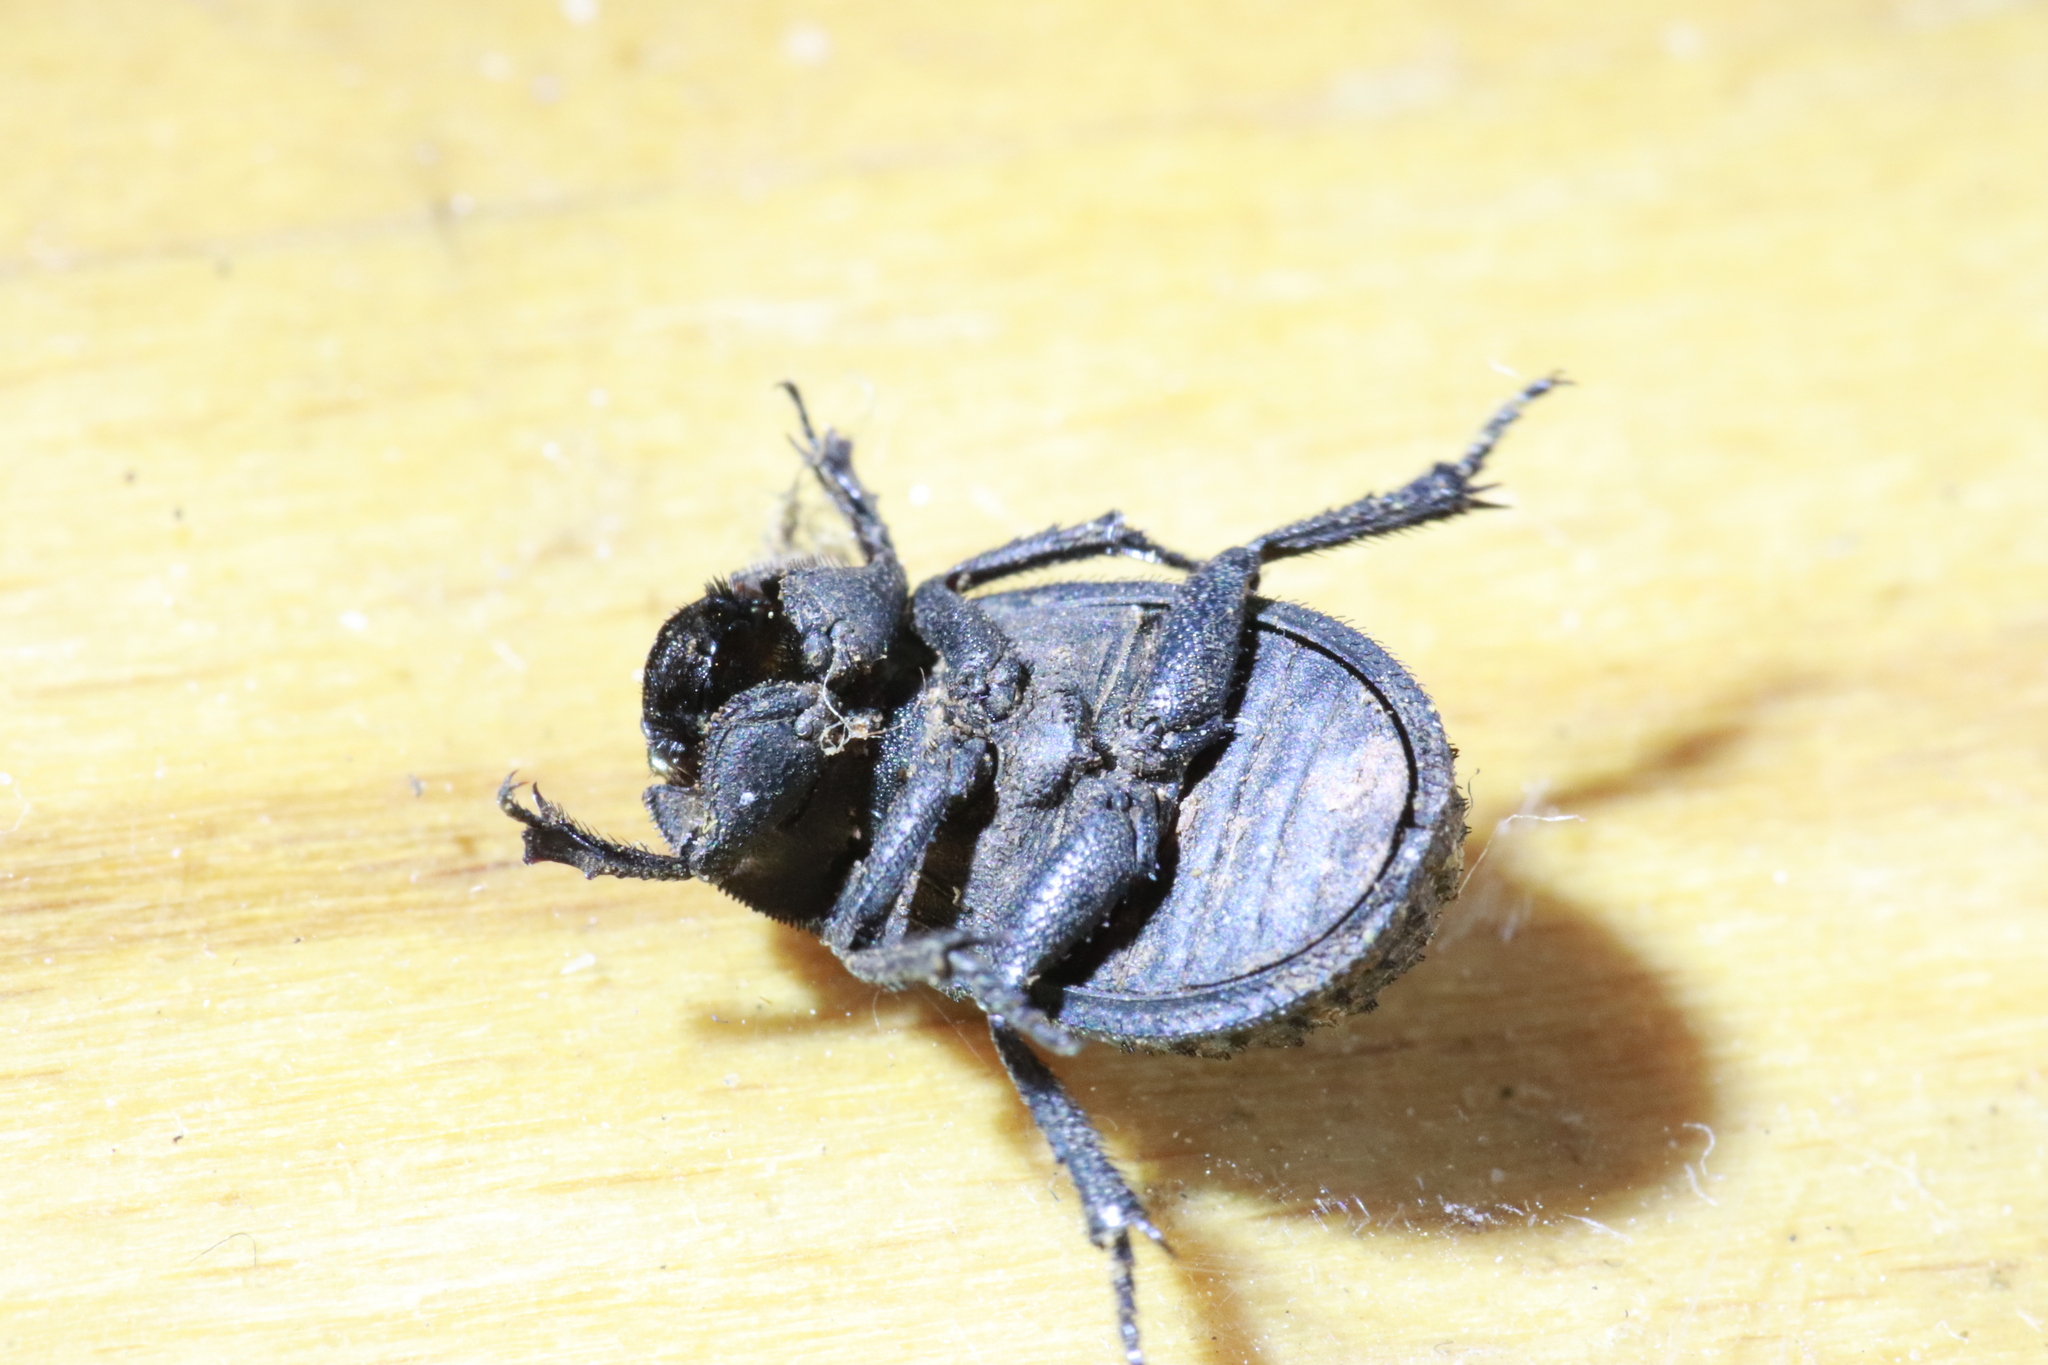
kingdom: Animalia
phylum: Arthropoda
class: Insecta
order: Coleoptera
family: Trogidae
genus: Trox
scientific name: Trox perlatus
